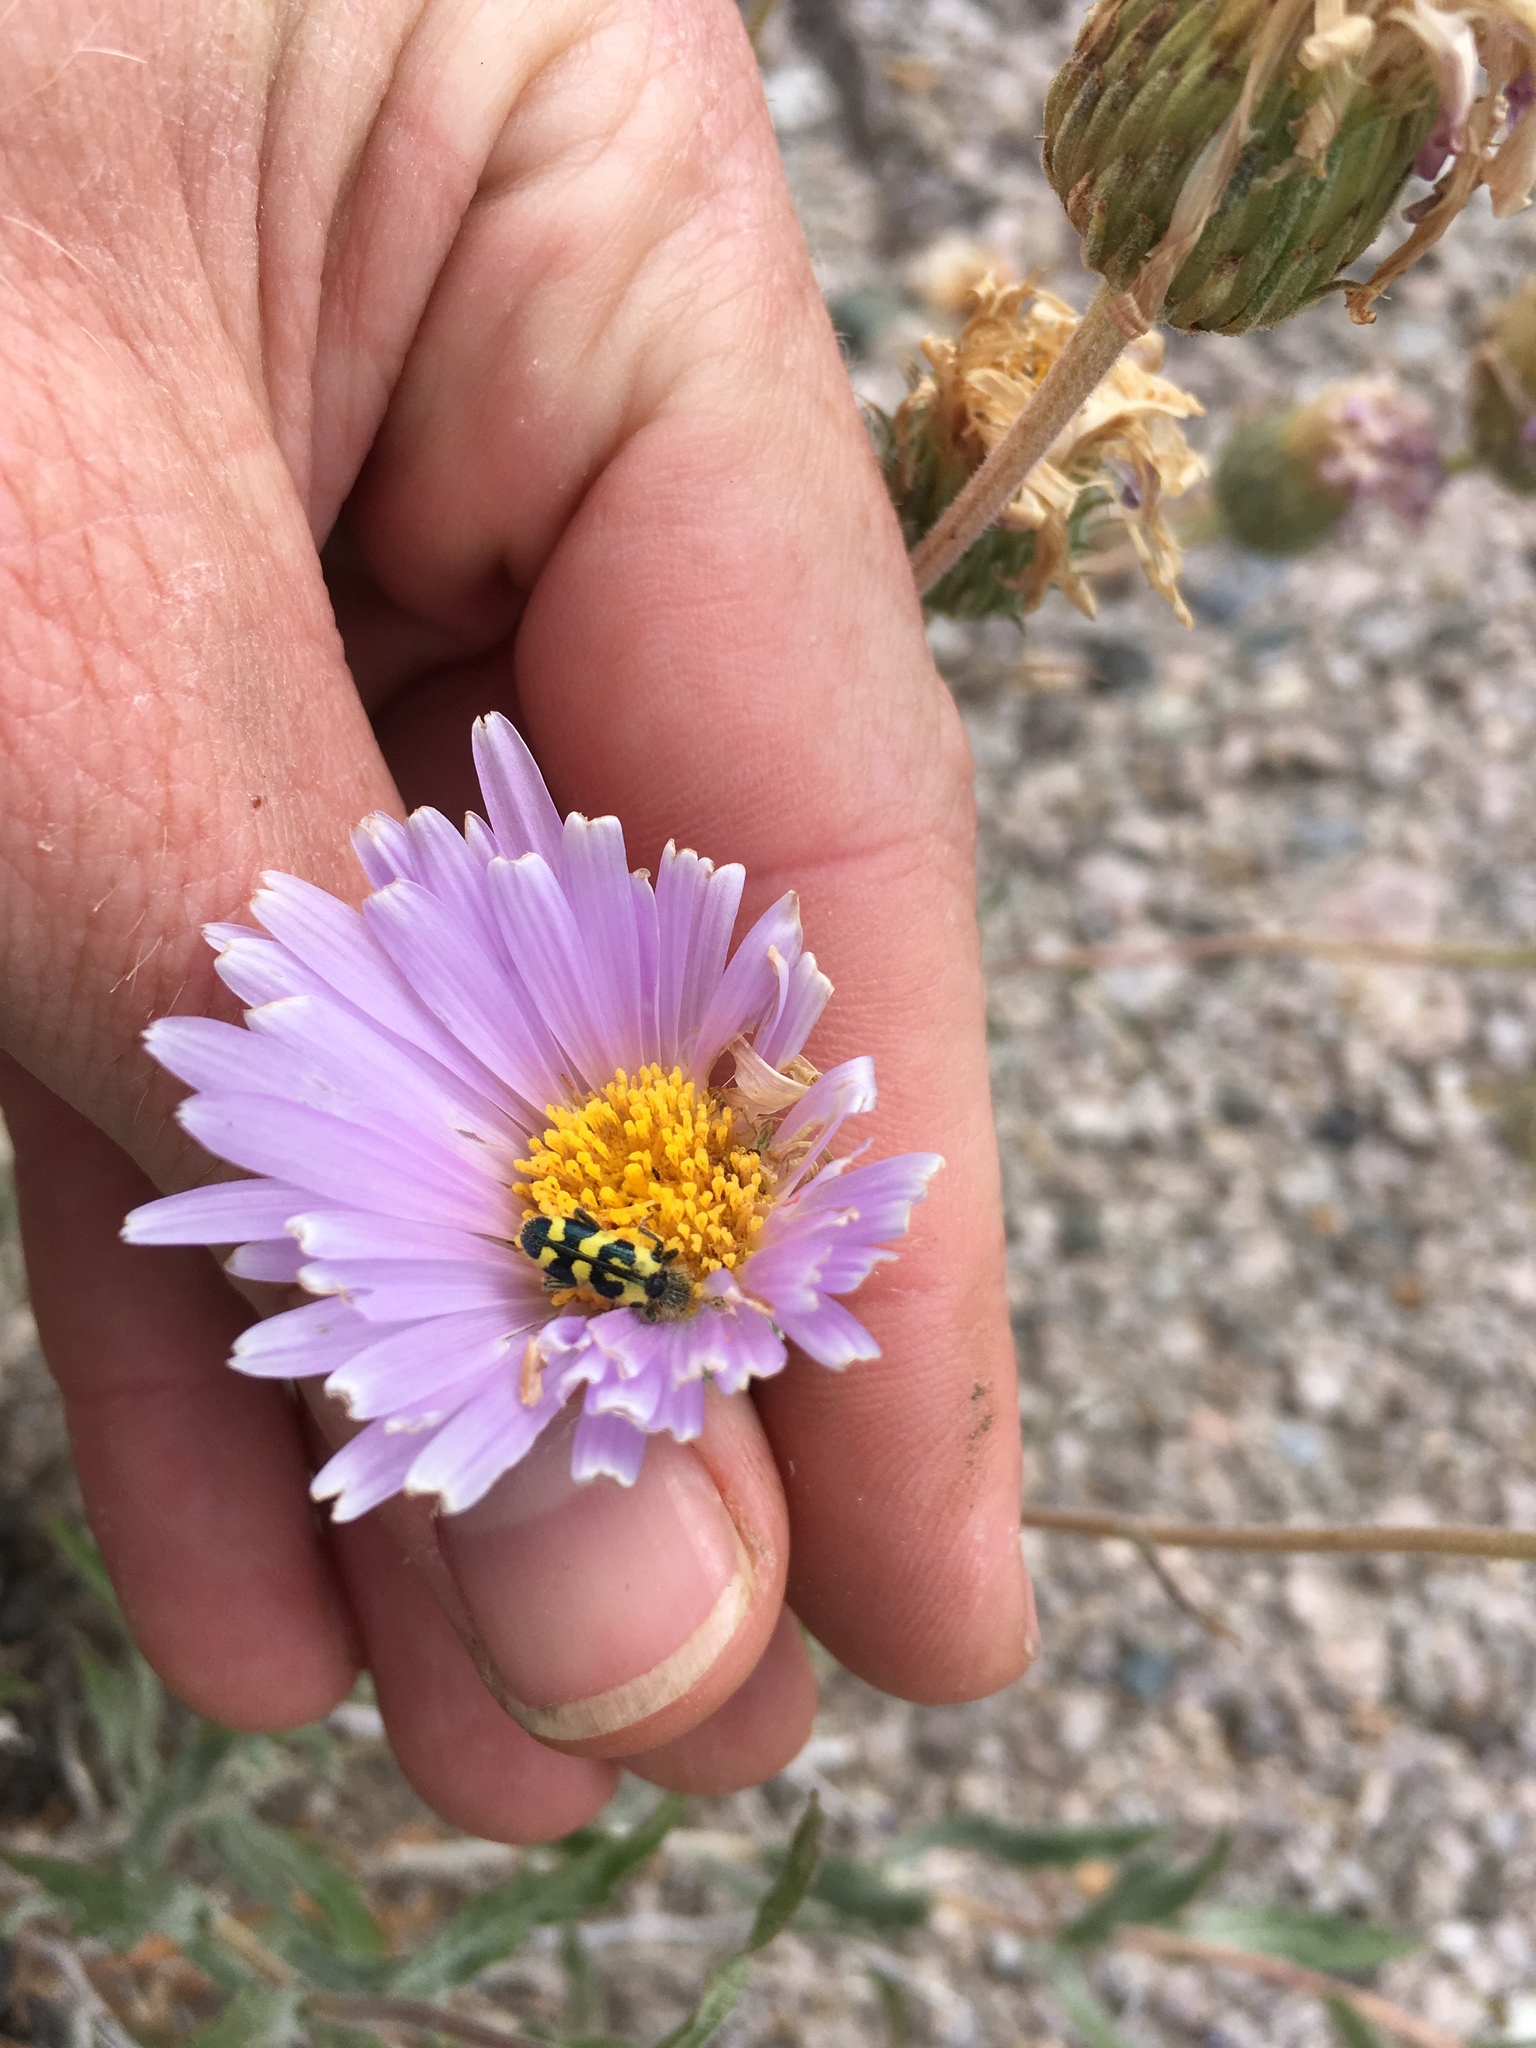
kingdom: Animalia
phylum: Arthropoda
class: Insecta
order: Coleoptera
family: Cleridae
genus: Trichodes
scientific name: Trichodes ornatus
